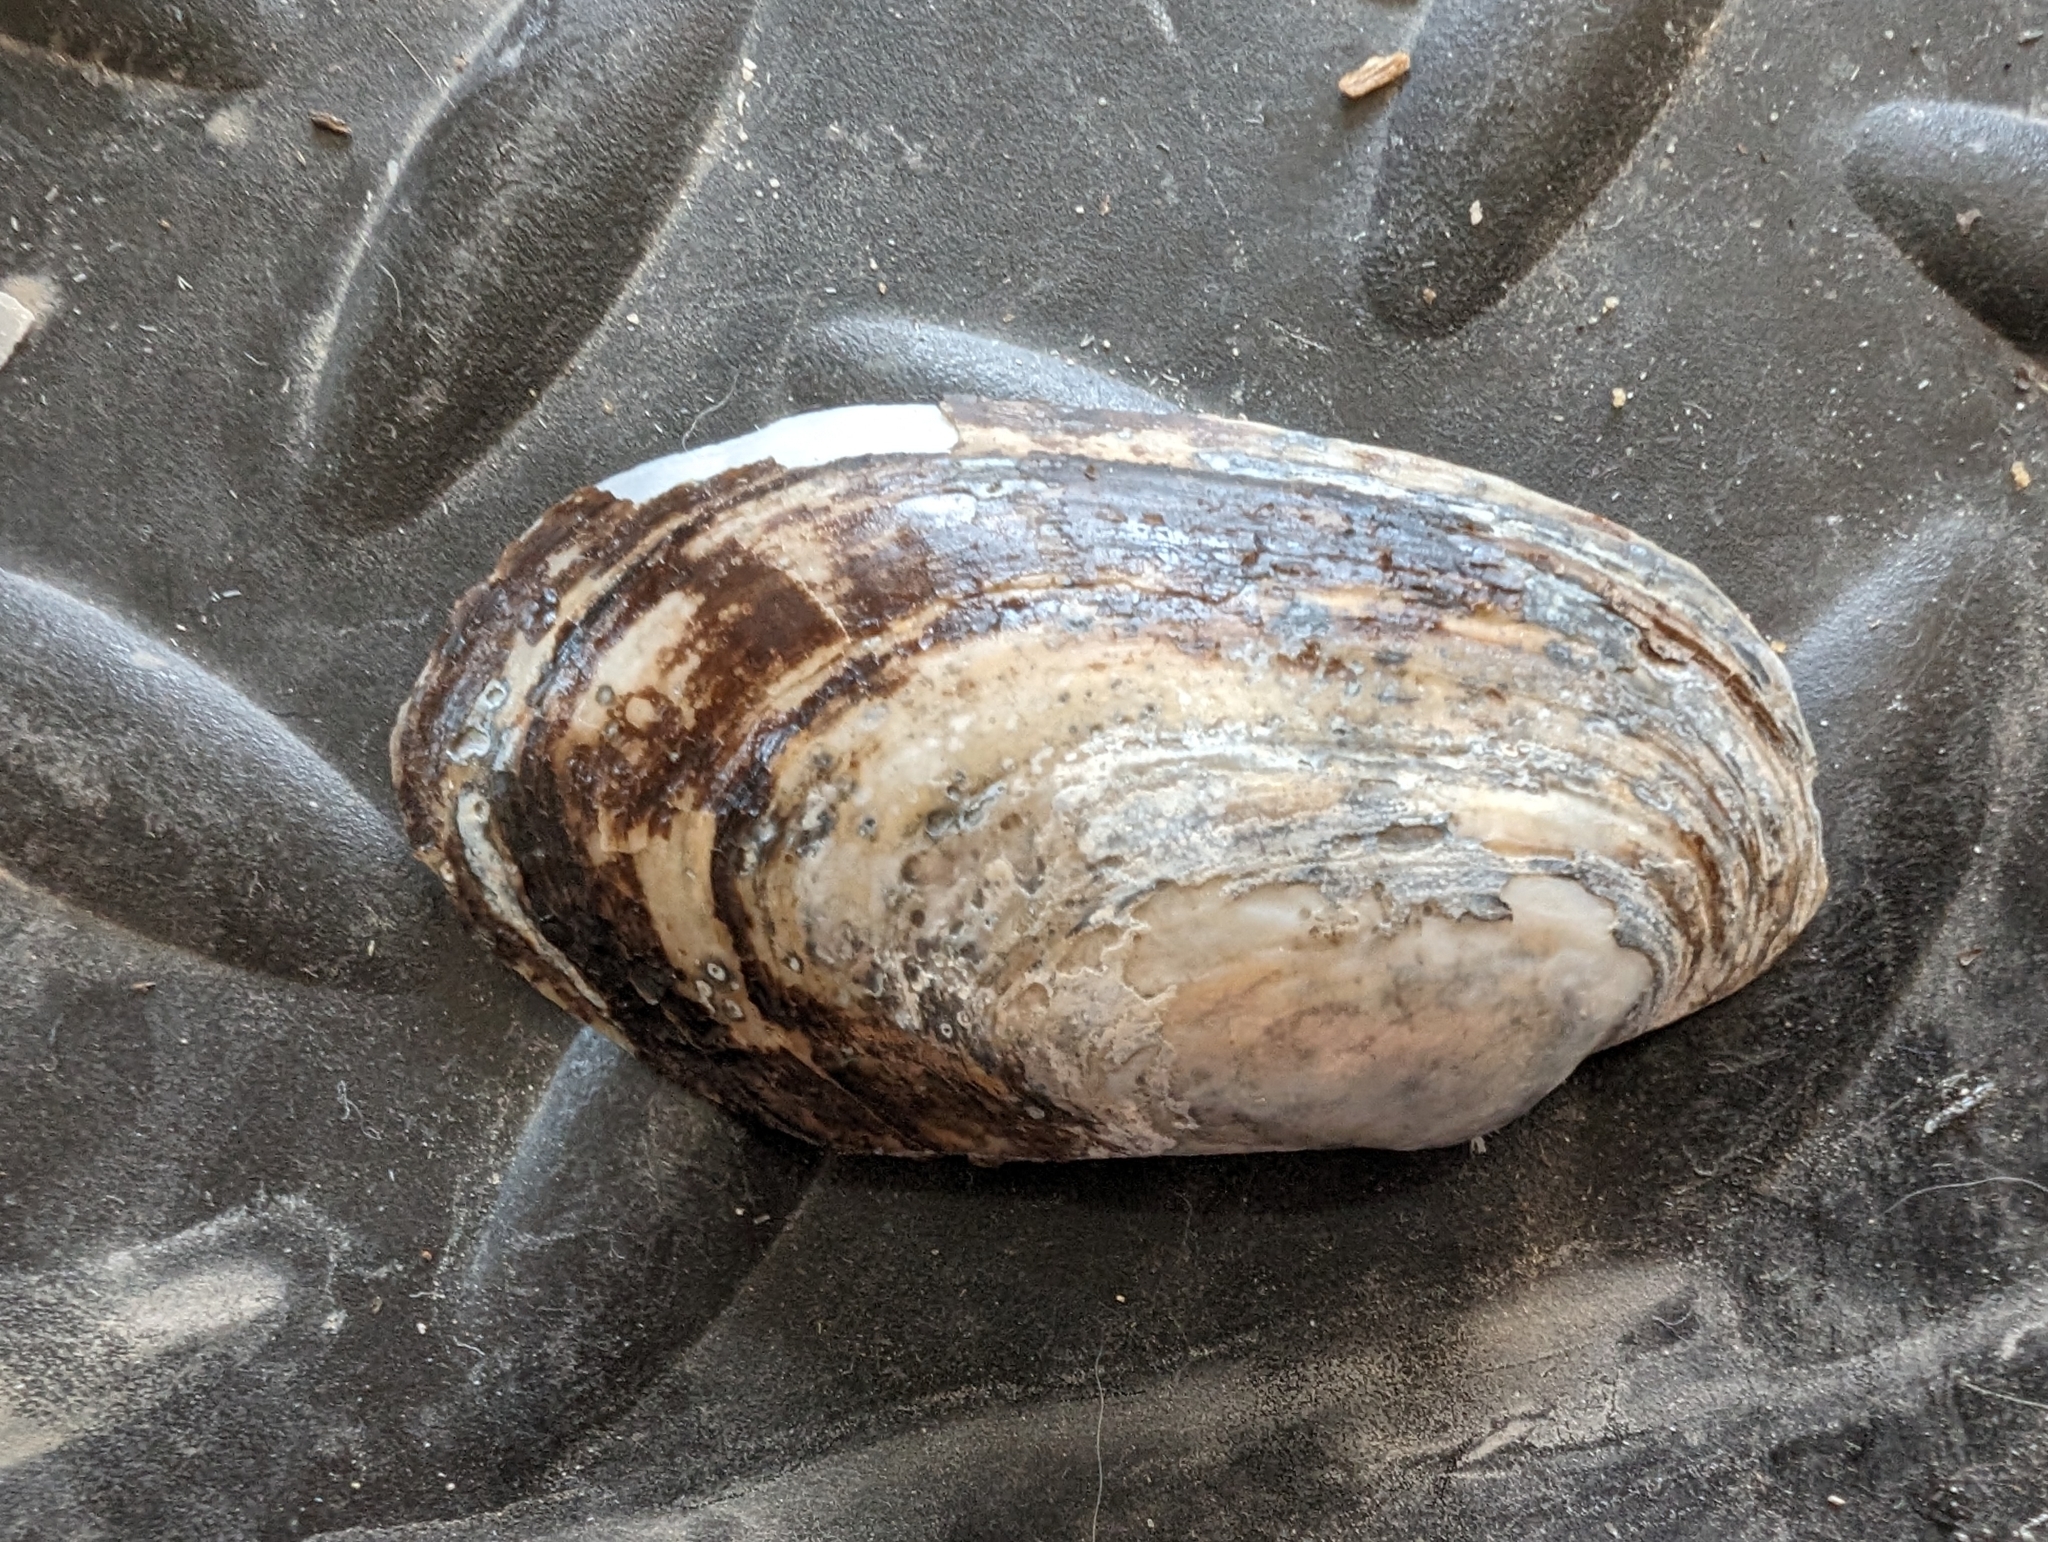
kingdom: Animalia
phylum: Mollusca
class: Bivalvia
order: Unionida
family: Unionidae
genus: Lampsilis
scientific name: Lampsilis siliquoidea
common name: Fatmucket
